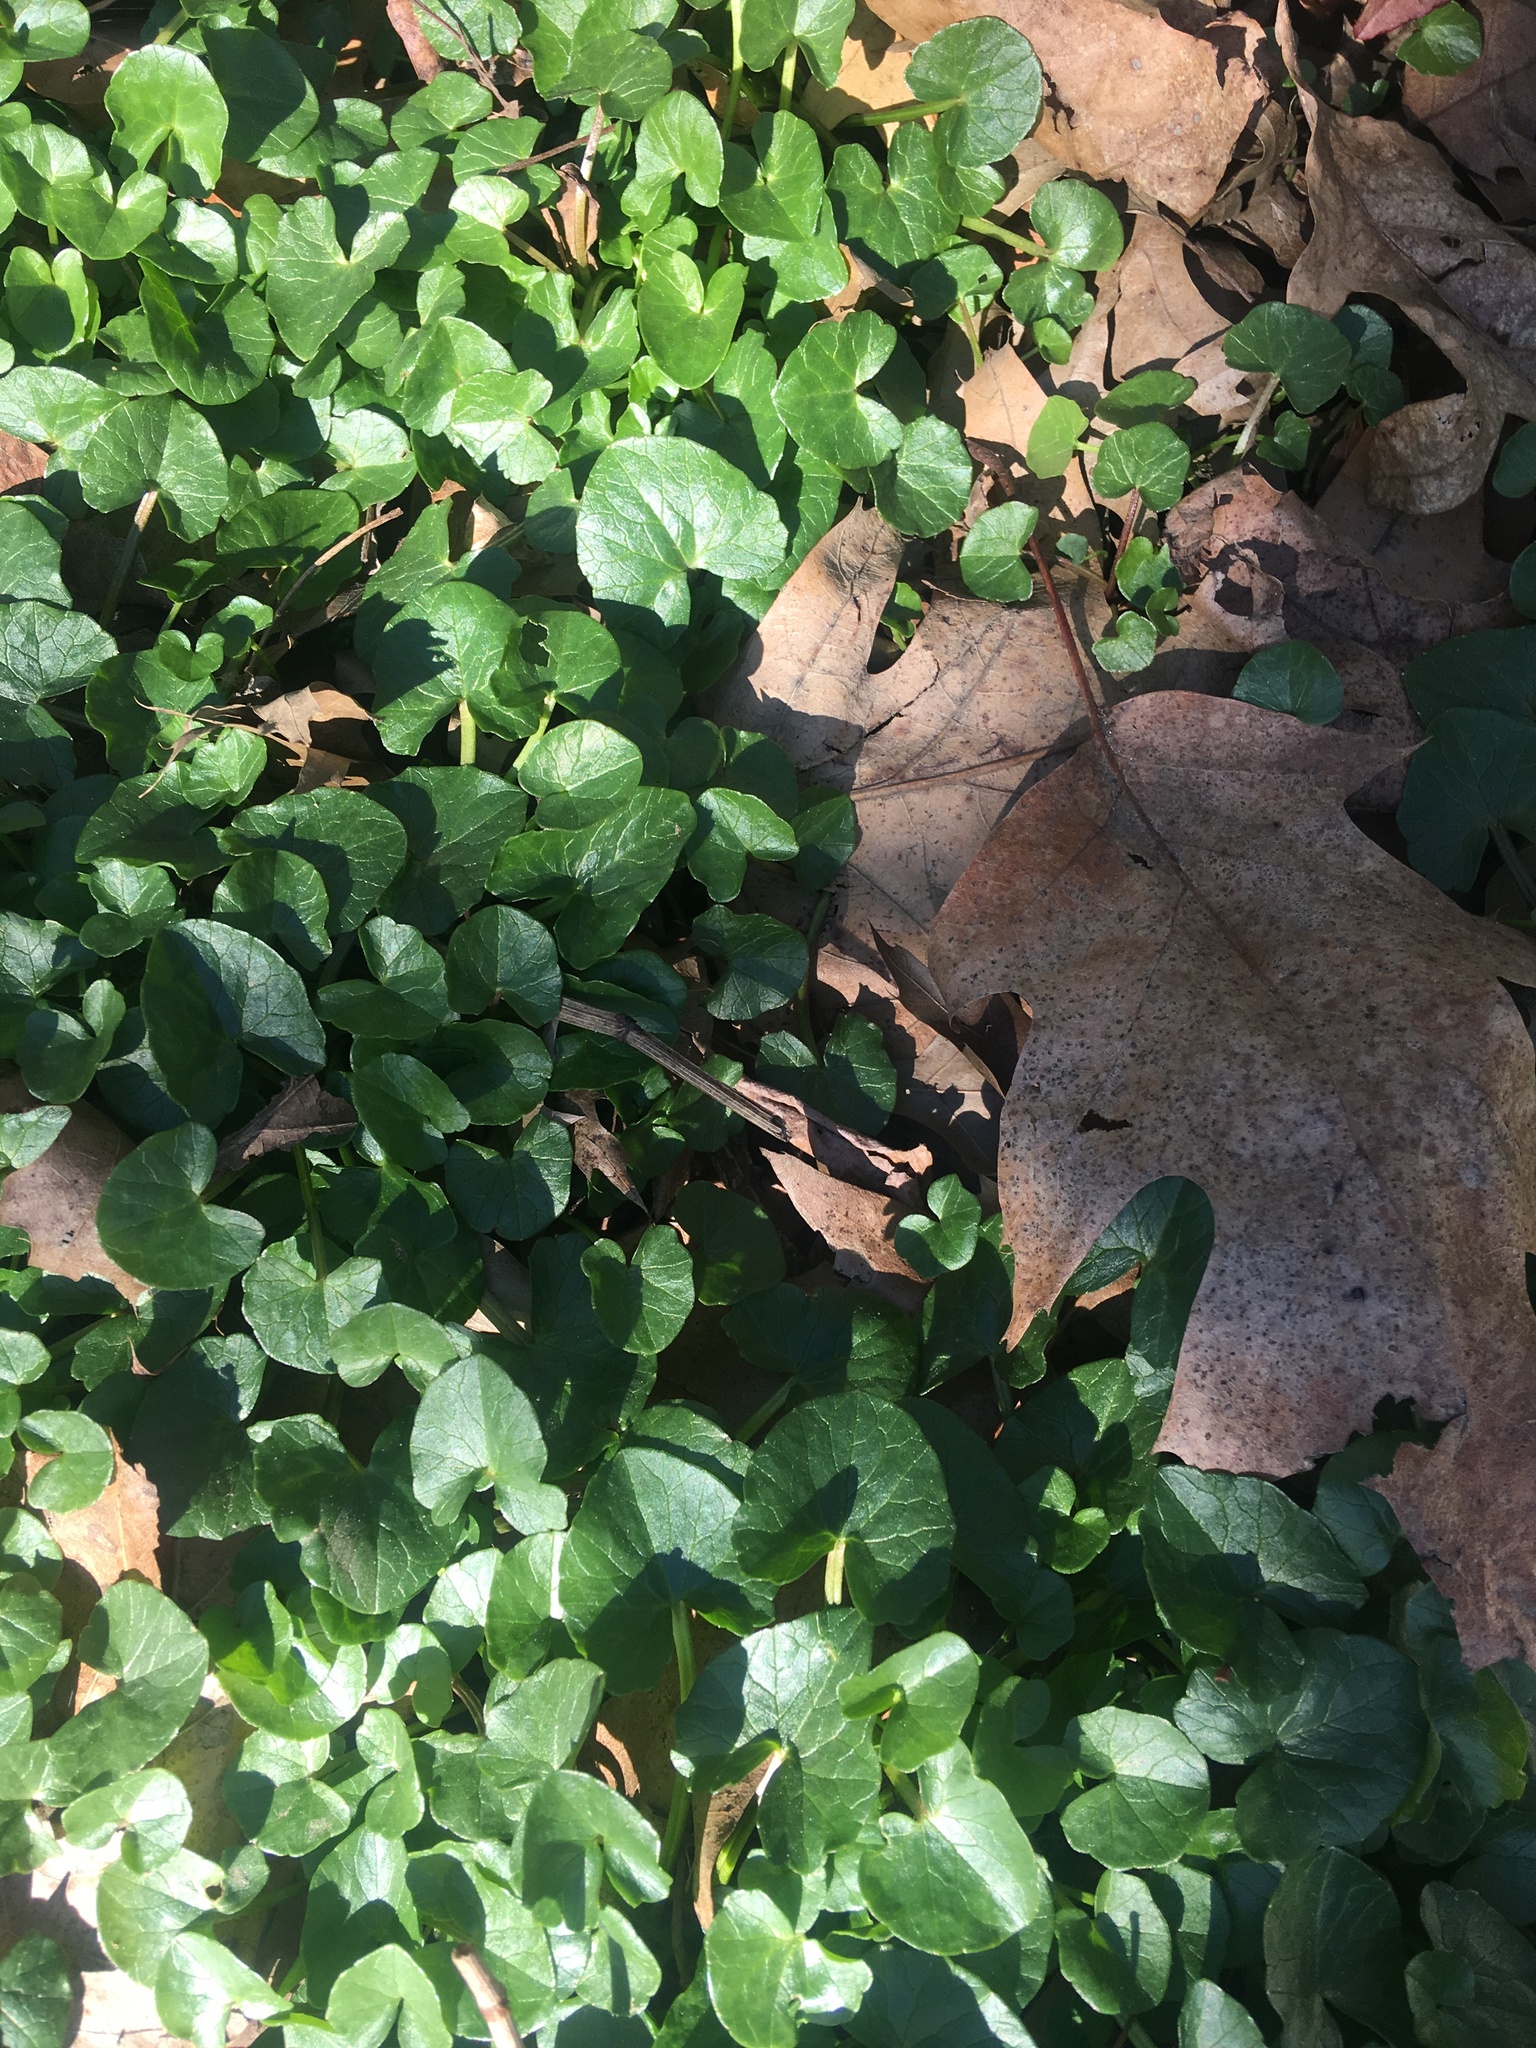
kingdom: Plantae
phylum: Tracheophyta
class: Magnoliopsida
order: Ranunculales
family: Ranunculaceae
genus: Ficaria
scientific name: Ficaria verna
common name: Lesser celandine
